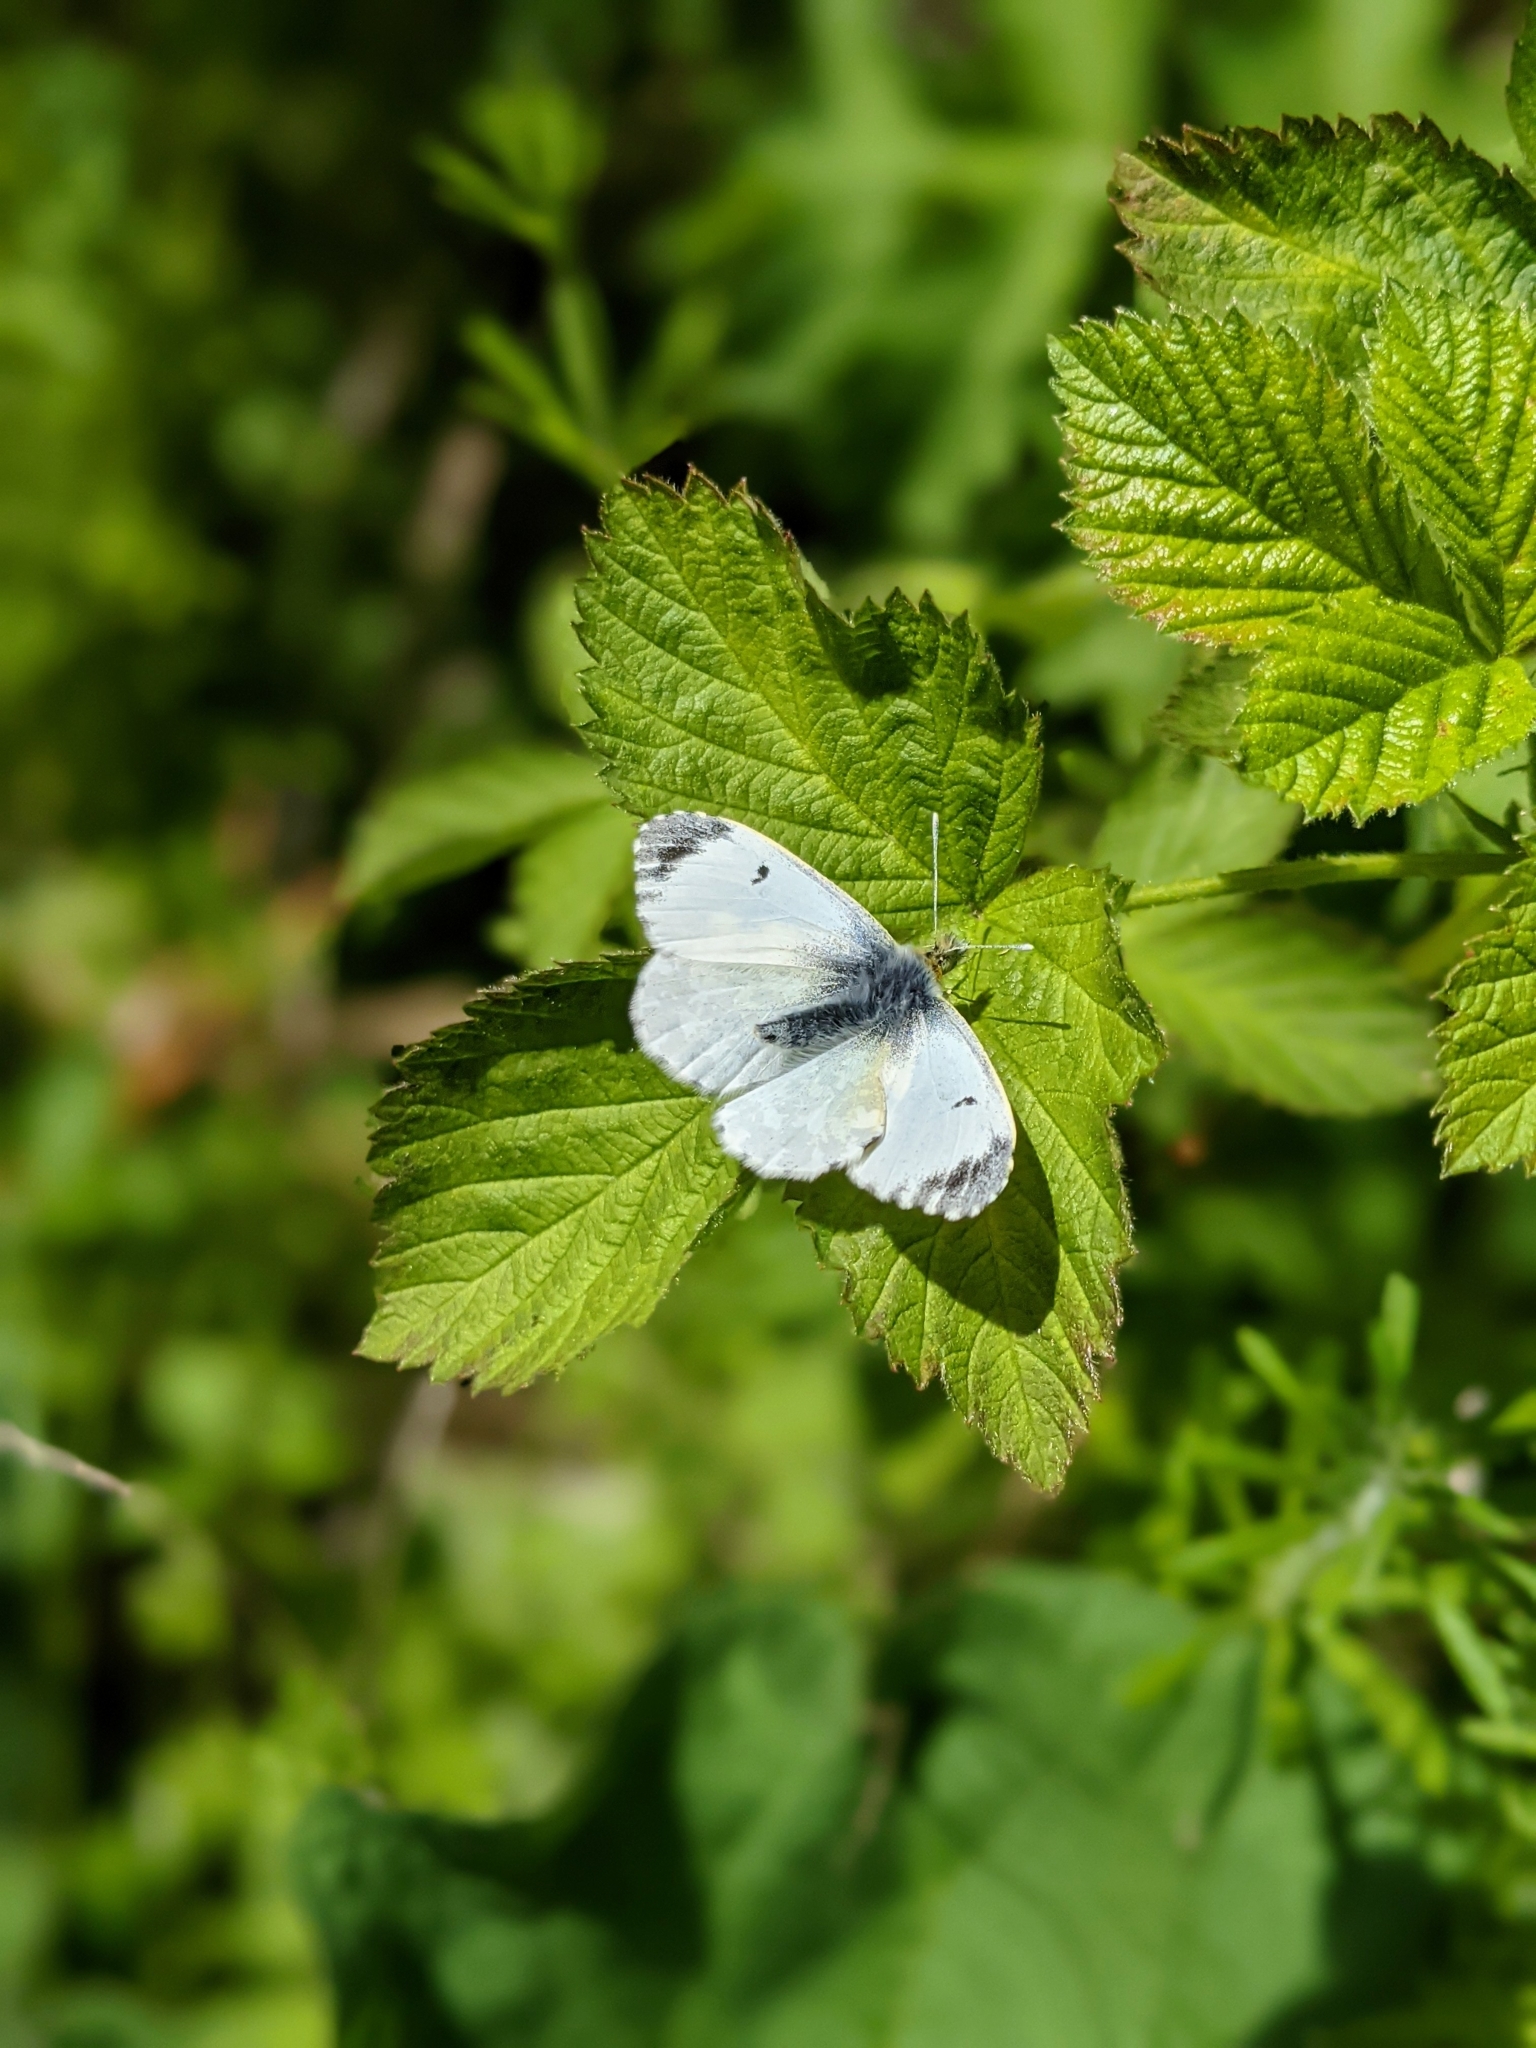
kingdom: Animalia
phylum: Arthropoda
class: Insecta
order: Lepidoptera
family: Pieridae
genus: Anthocharis
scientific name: Anthocharis cardamines
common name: Orange-tip
